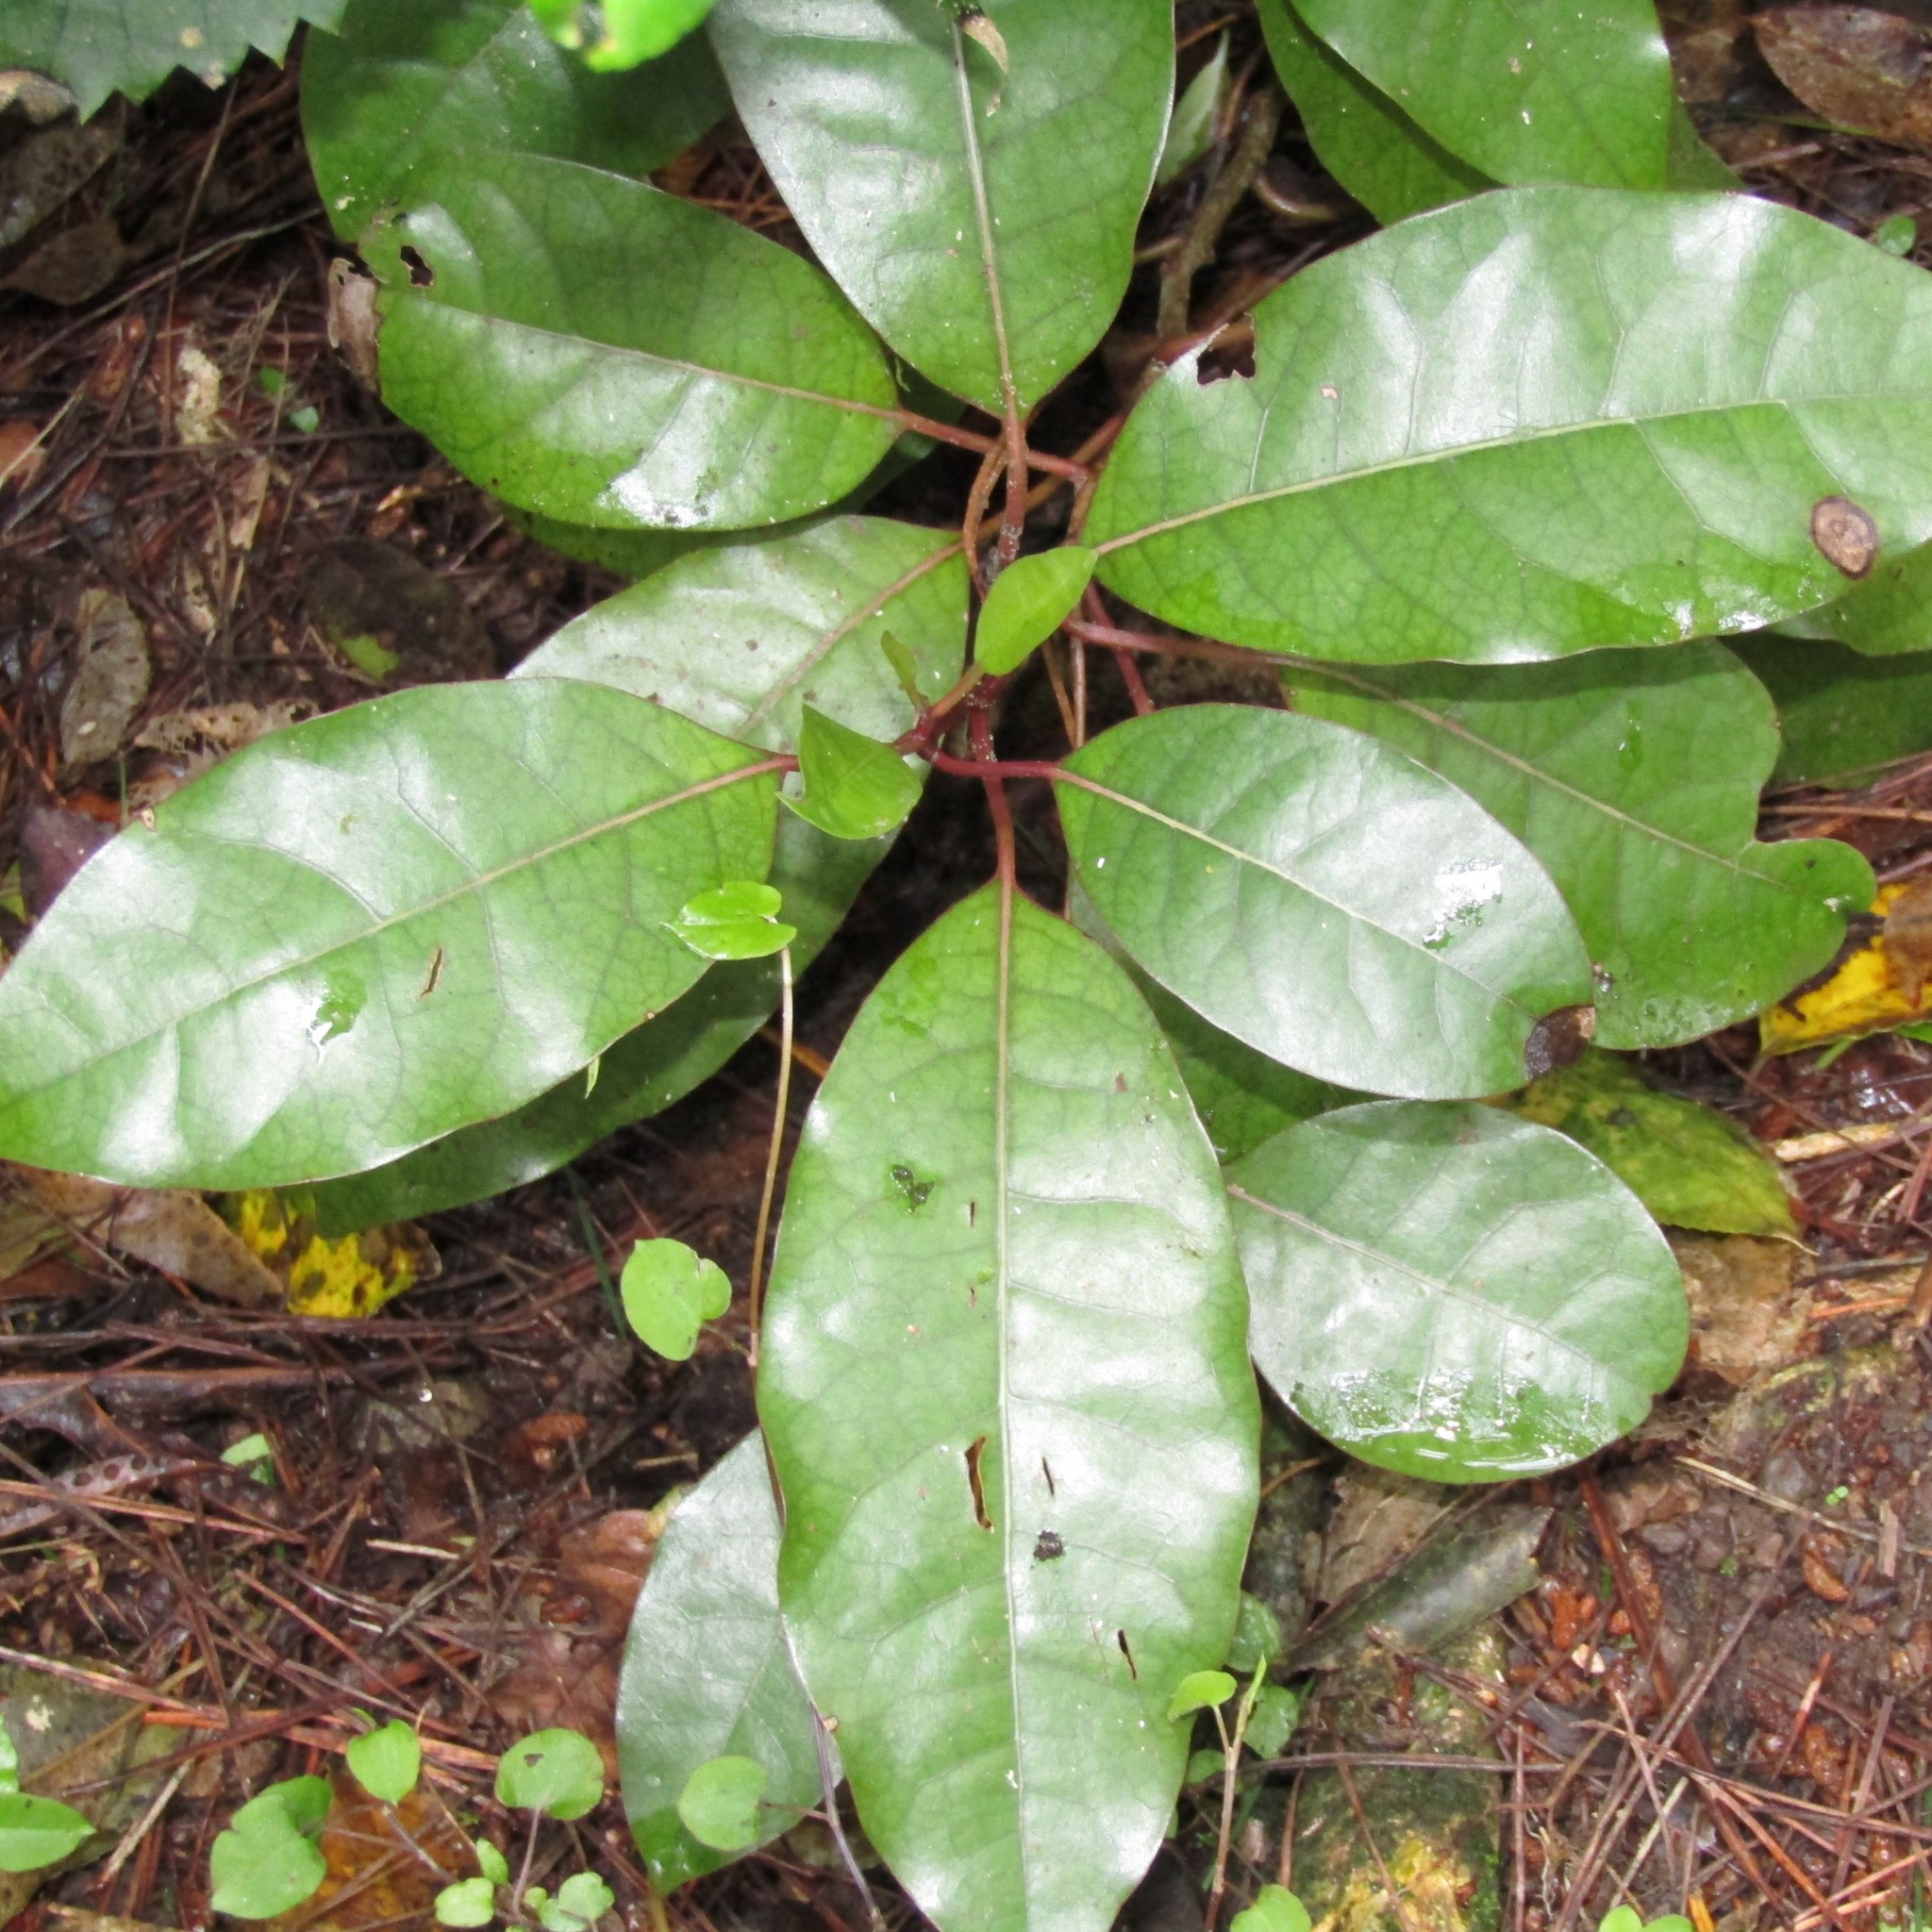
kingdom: Plantae
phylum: Tracheophyta
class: Magnoliopsida
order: Laurales
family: Lauraceae
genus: Litsea
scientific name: Litsea calicaris
